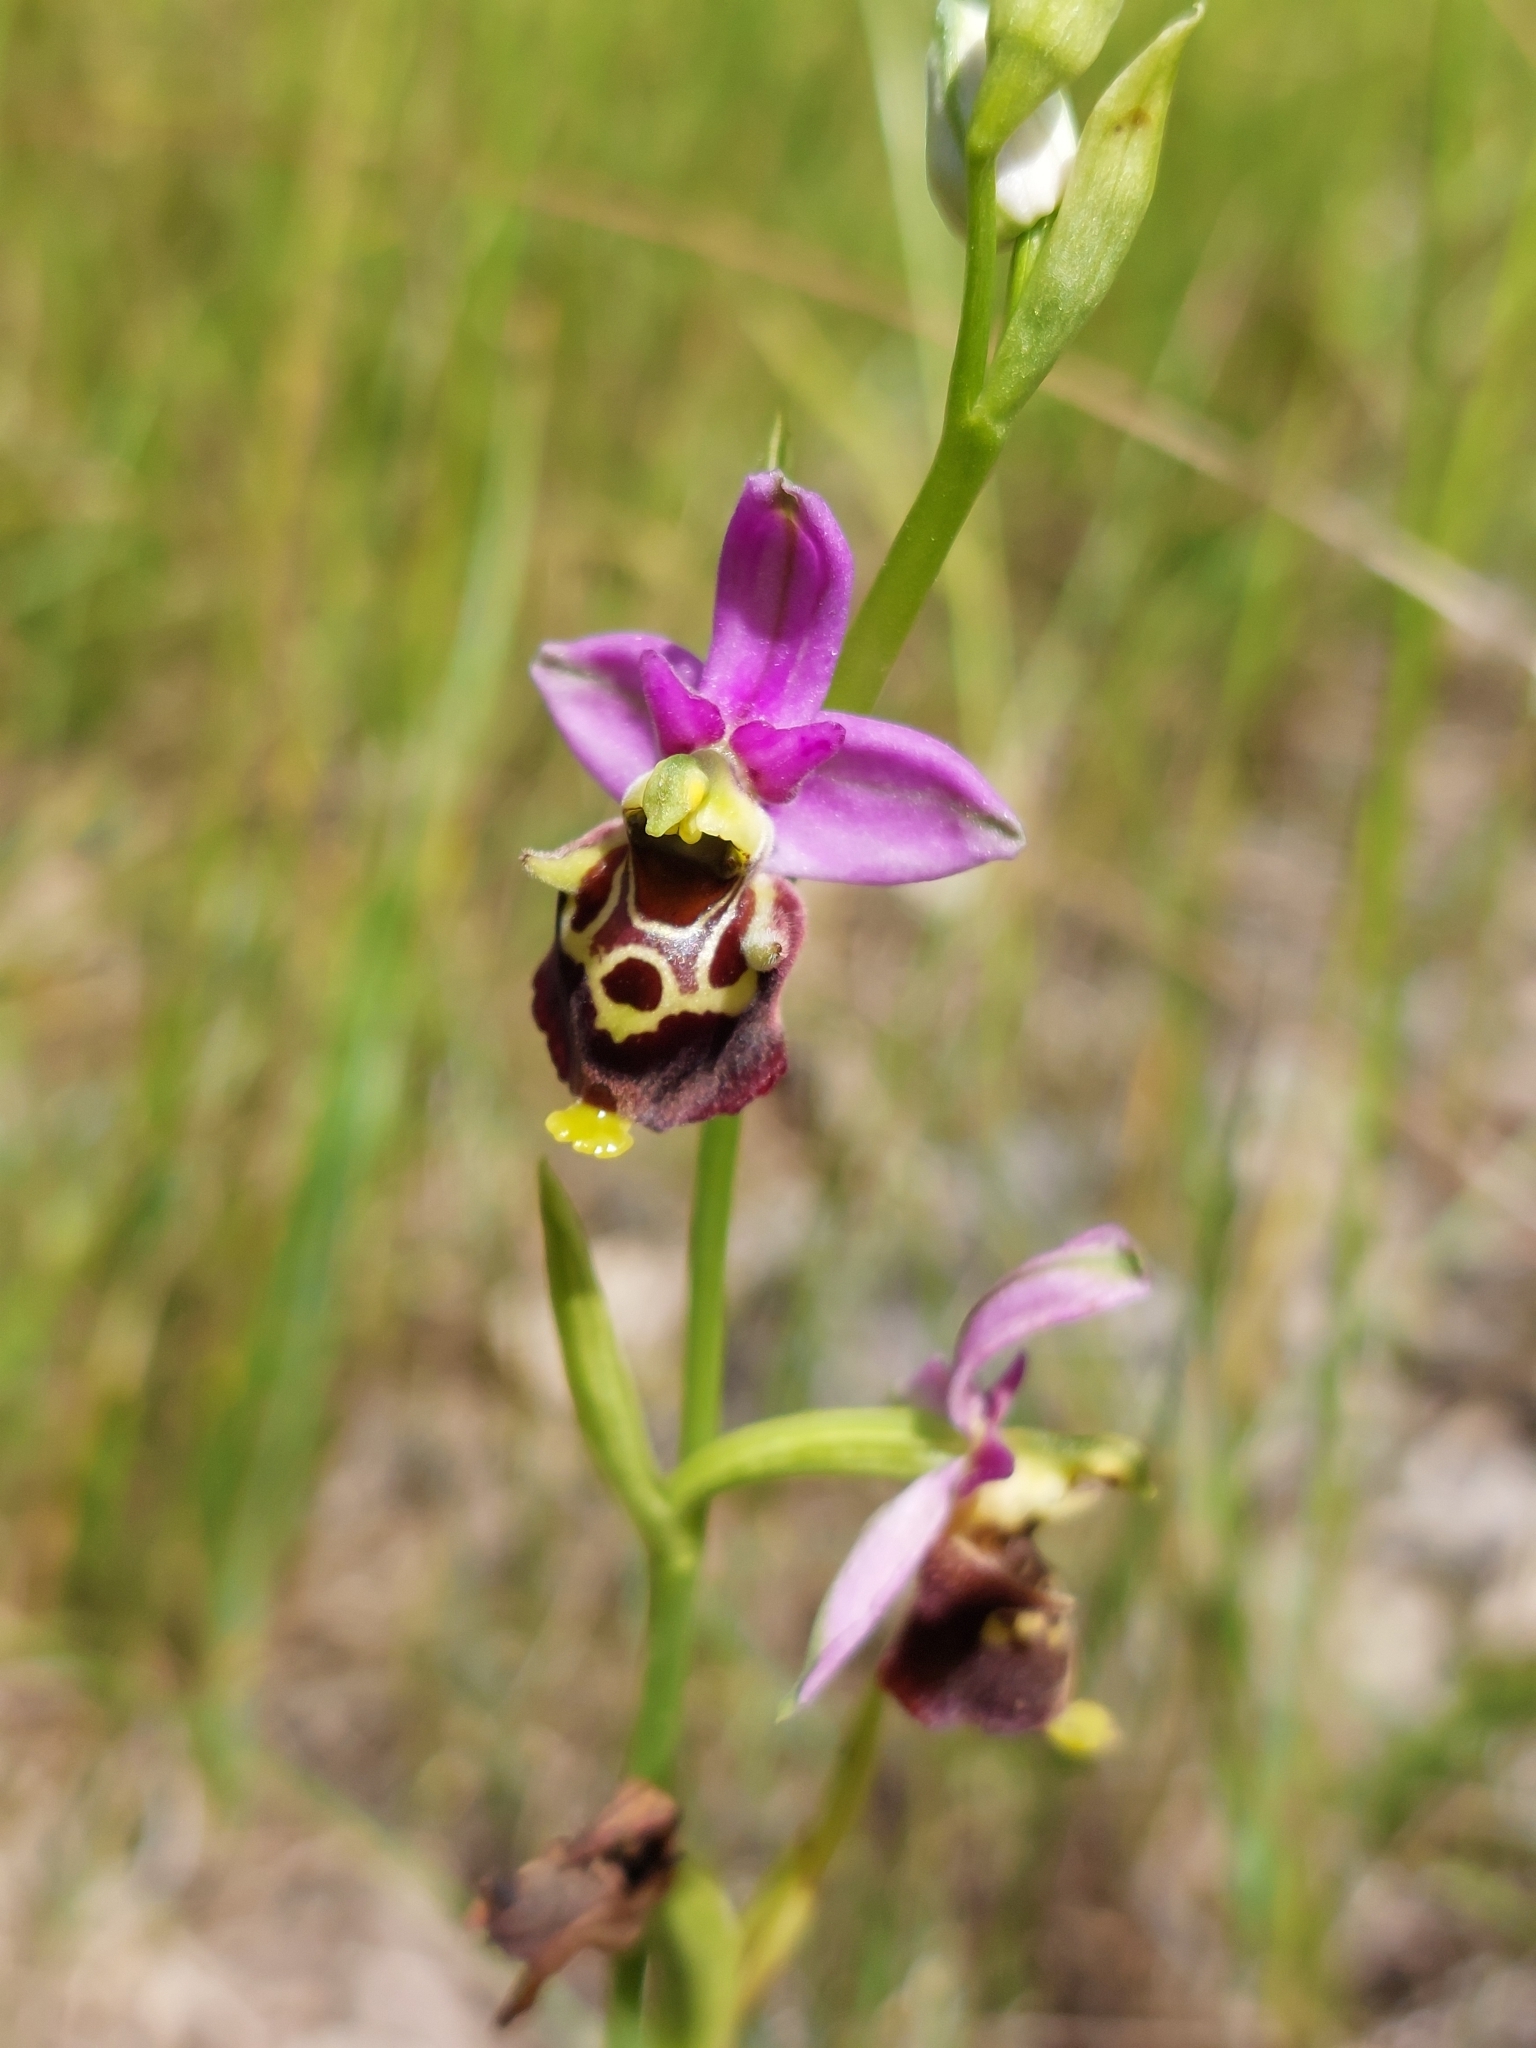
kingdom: Plantae
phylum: Tracheophyta
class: Liliopsida
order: Asparagales
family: Orchidaceae
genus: Ophrys
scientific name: Ophrys holosericea
